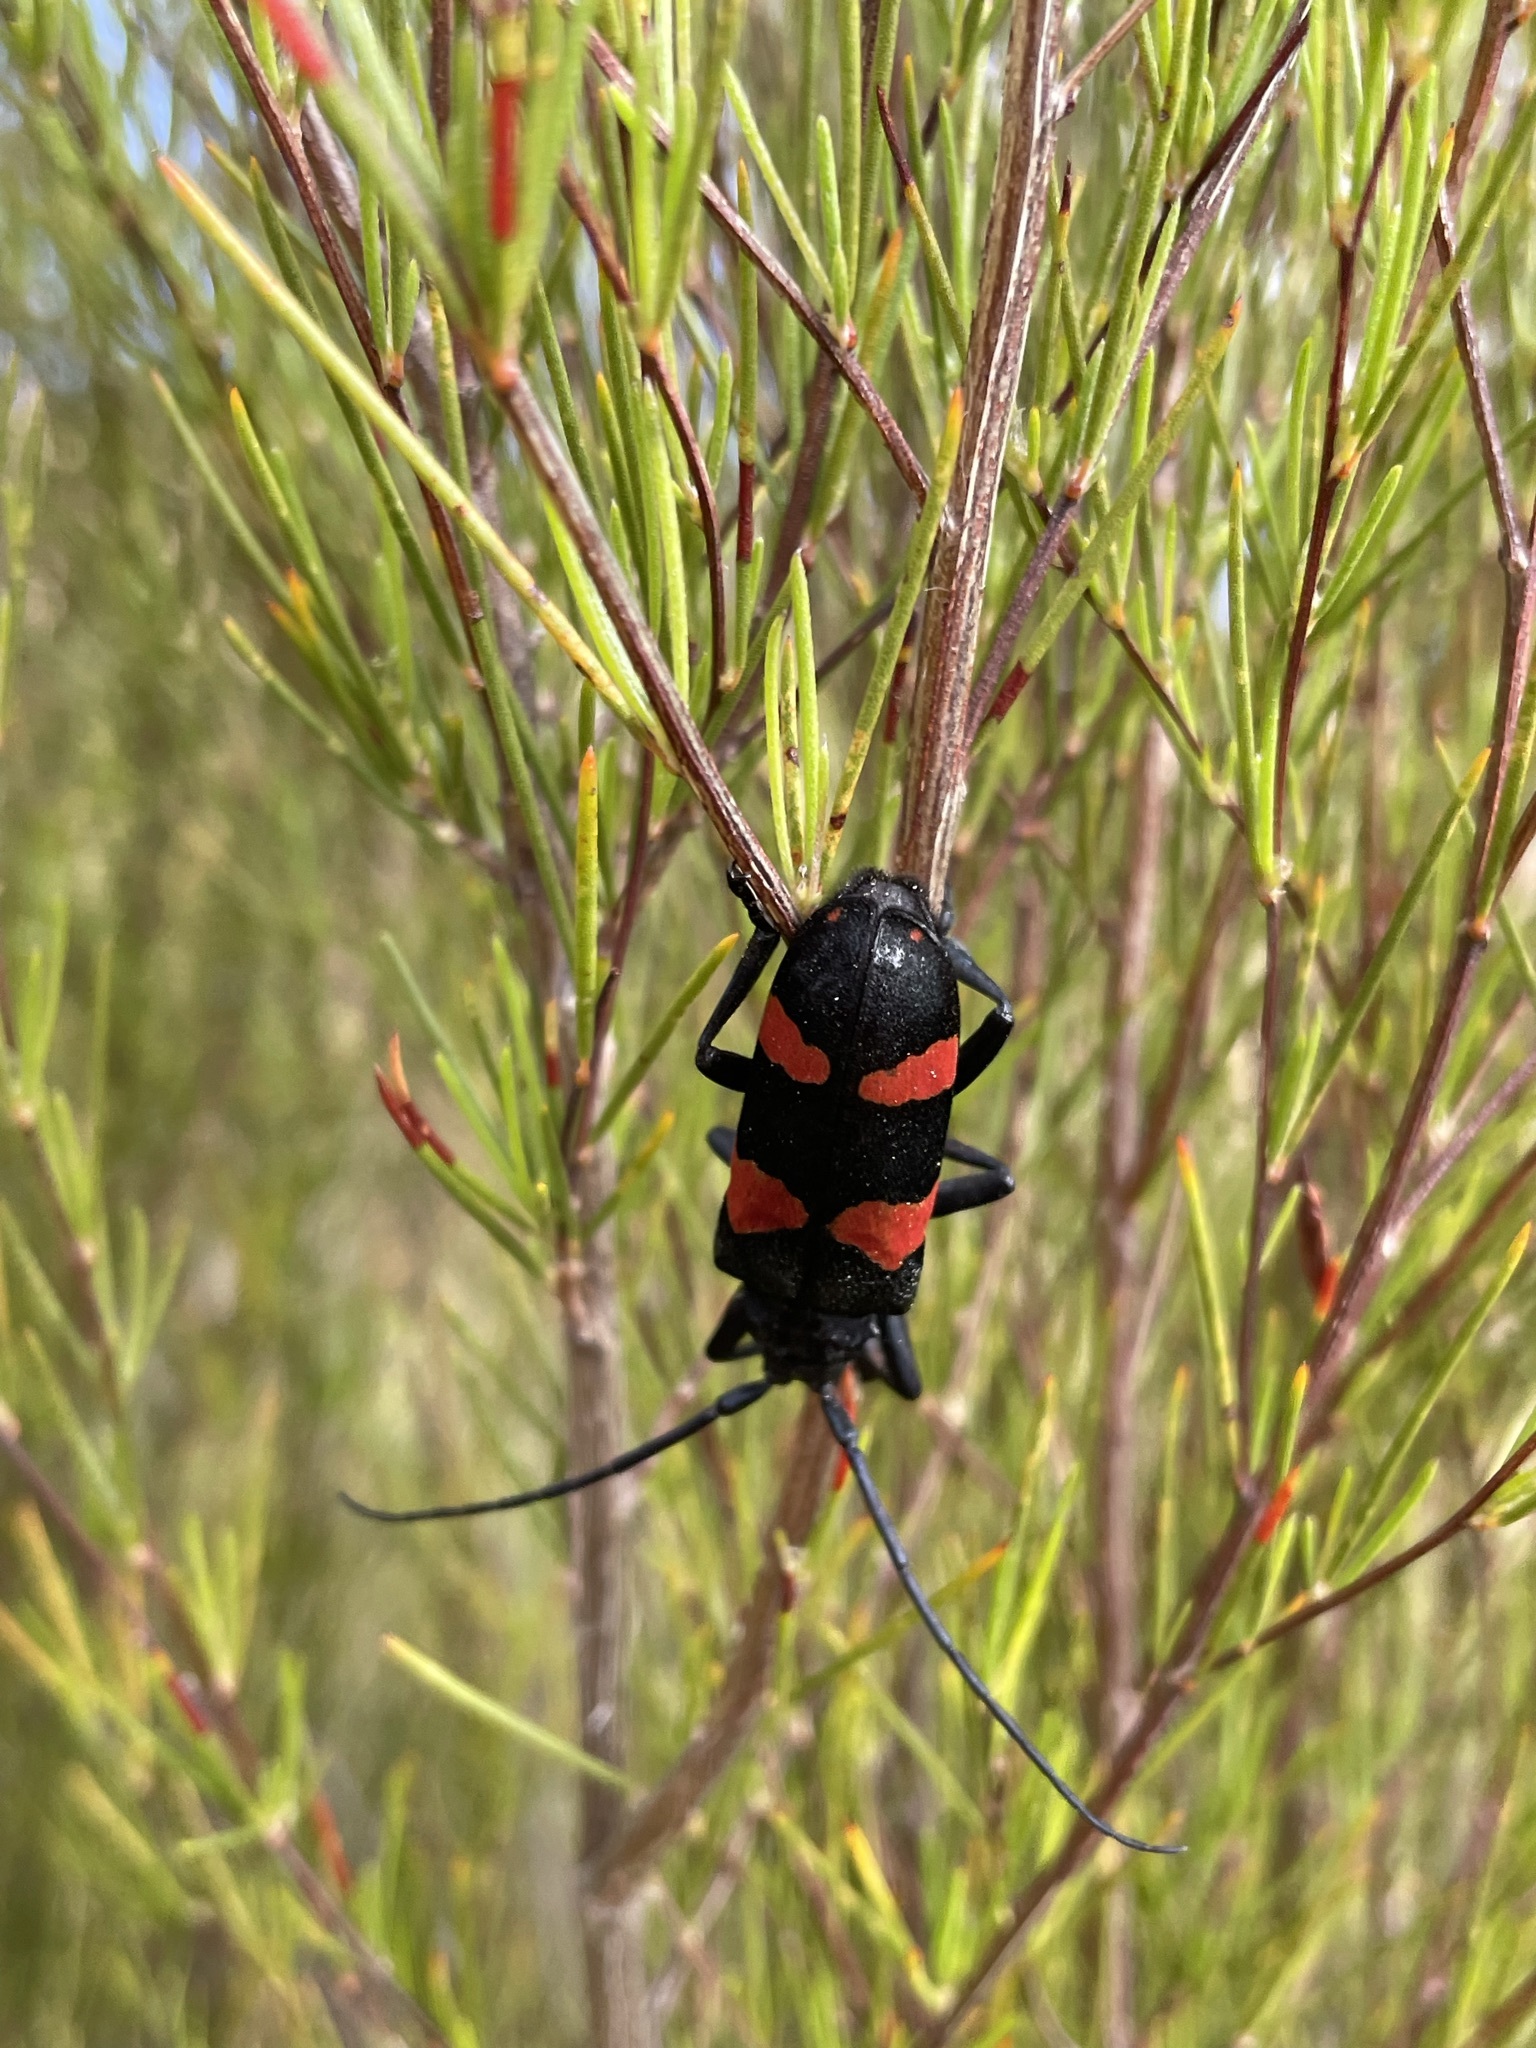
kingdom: Animalia
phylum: Arthropoda
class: Insecta
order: Coleoptera
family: Cerambycidae
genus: Ceroplesis
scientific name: Ceroplesis aethiops
